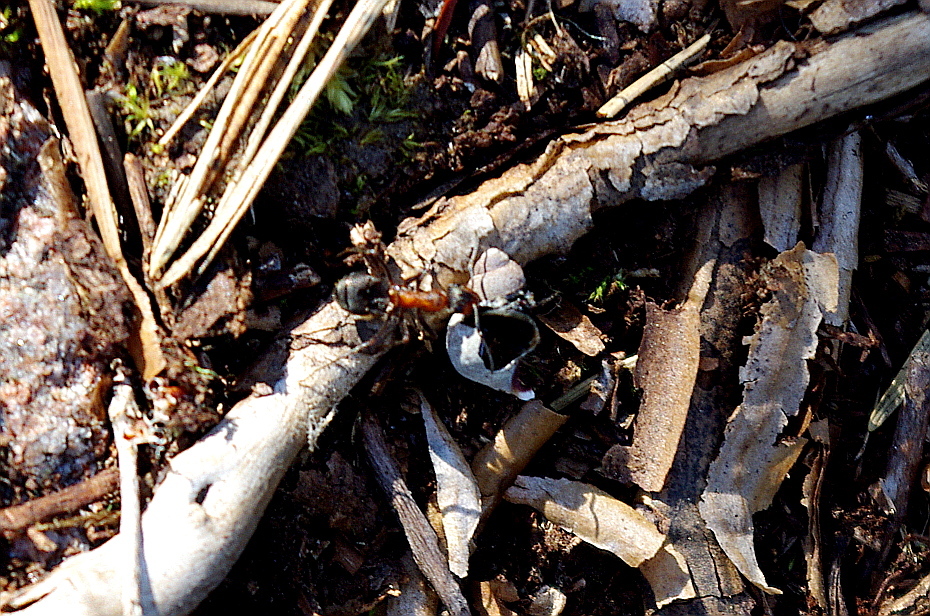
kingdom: Animalia
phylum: Mollusca
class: Gastropoda
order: Littorinimorpha
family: Littorinidae
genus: Littorina
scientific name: Littorina saxatilis
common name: Black-lined periwinkle
